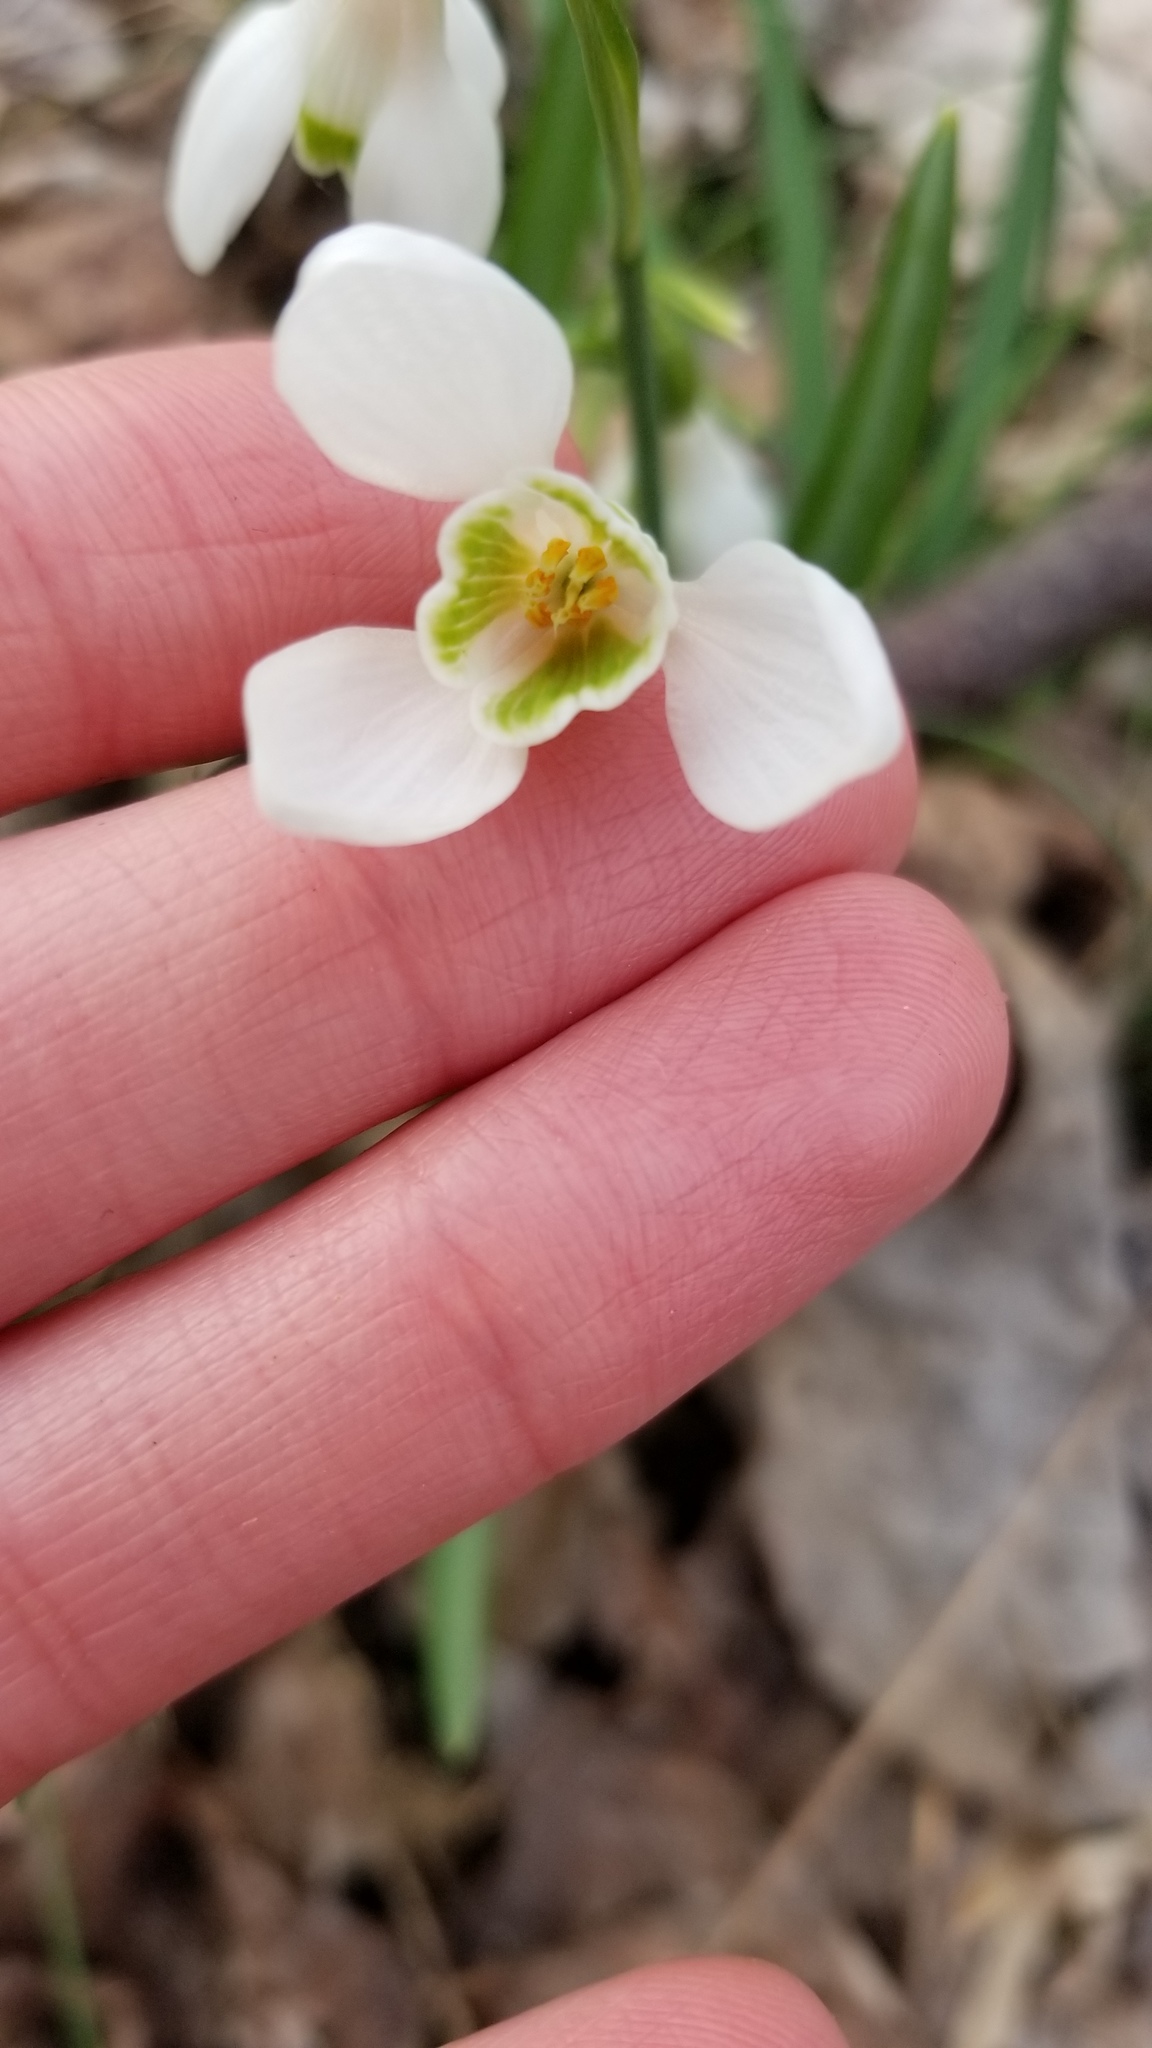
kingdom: Plantae
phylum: Tracheophyta
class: Liliopsida
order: Asparagales
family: Amaryllidaceae
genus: Galanthus
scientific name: Galanthus nivalis
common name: Snowdrop
